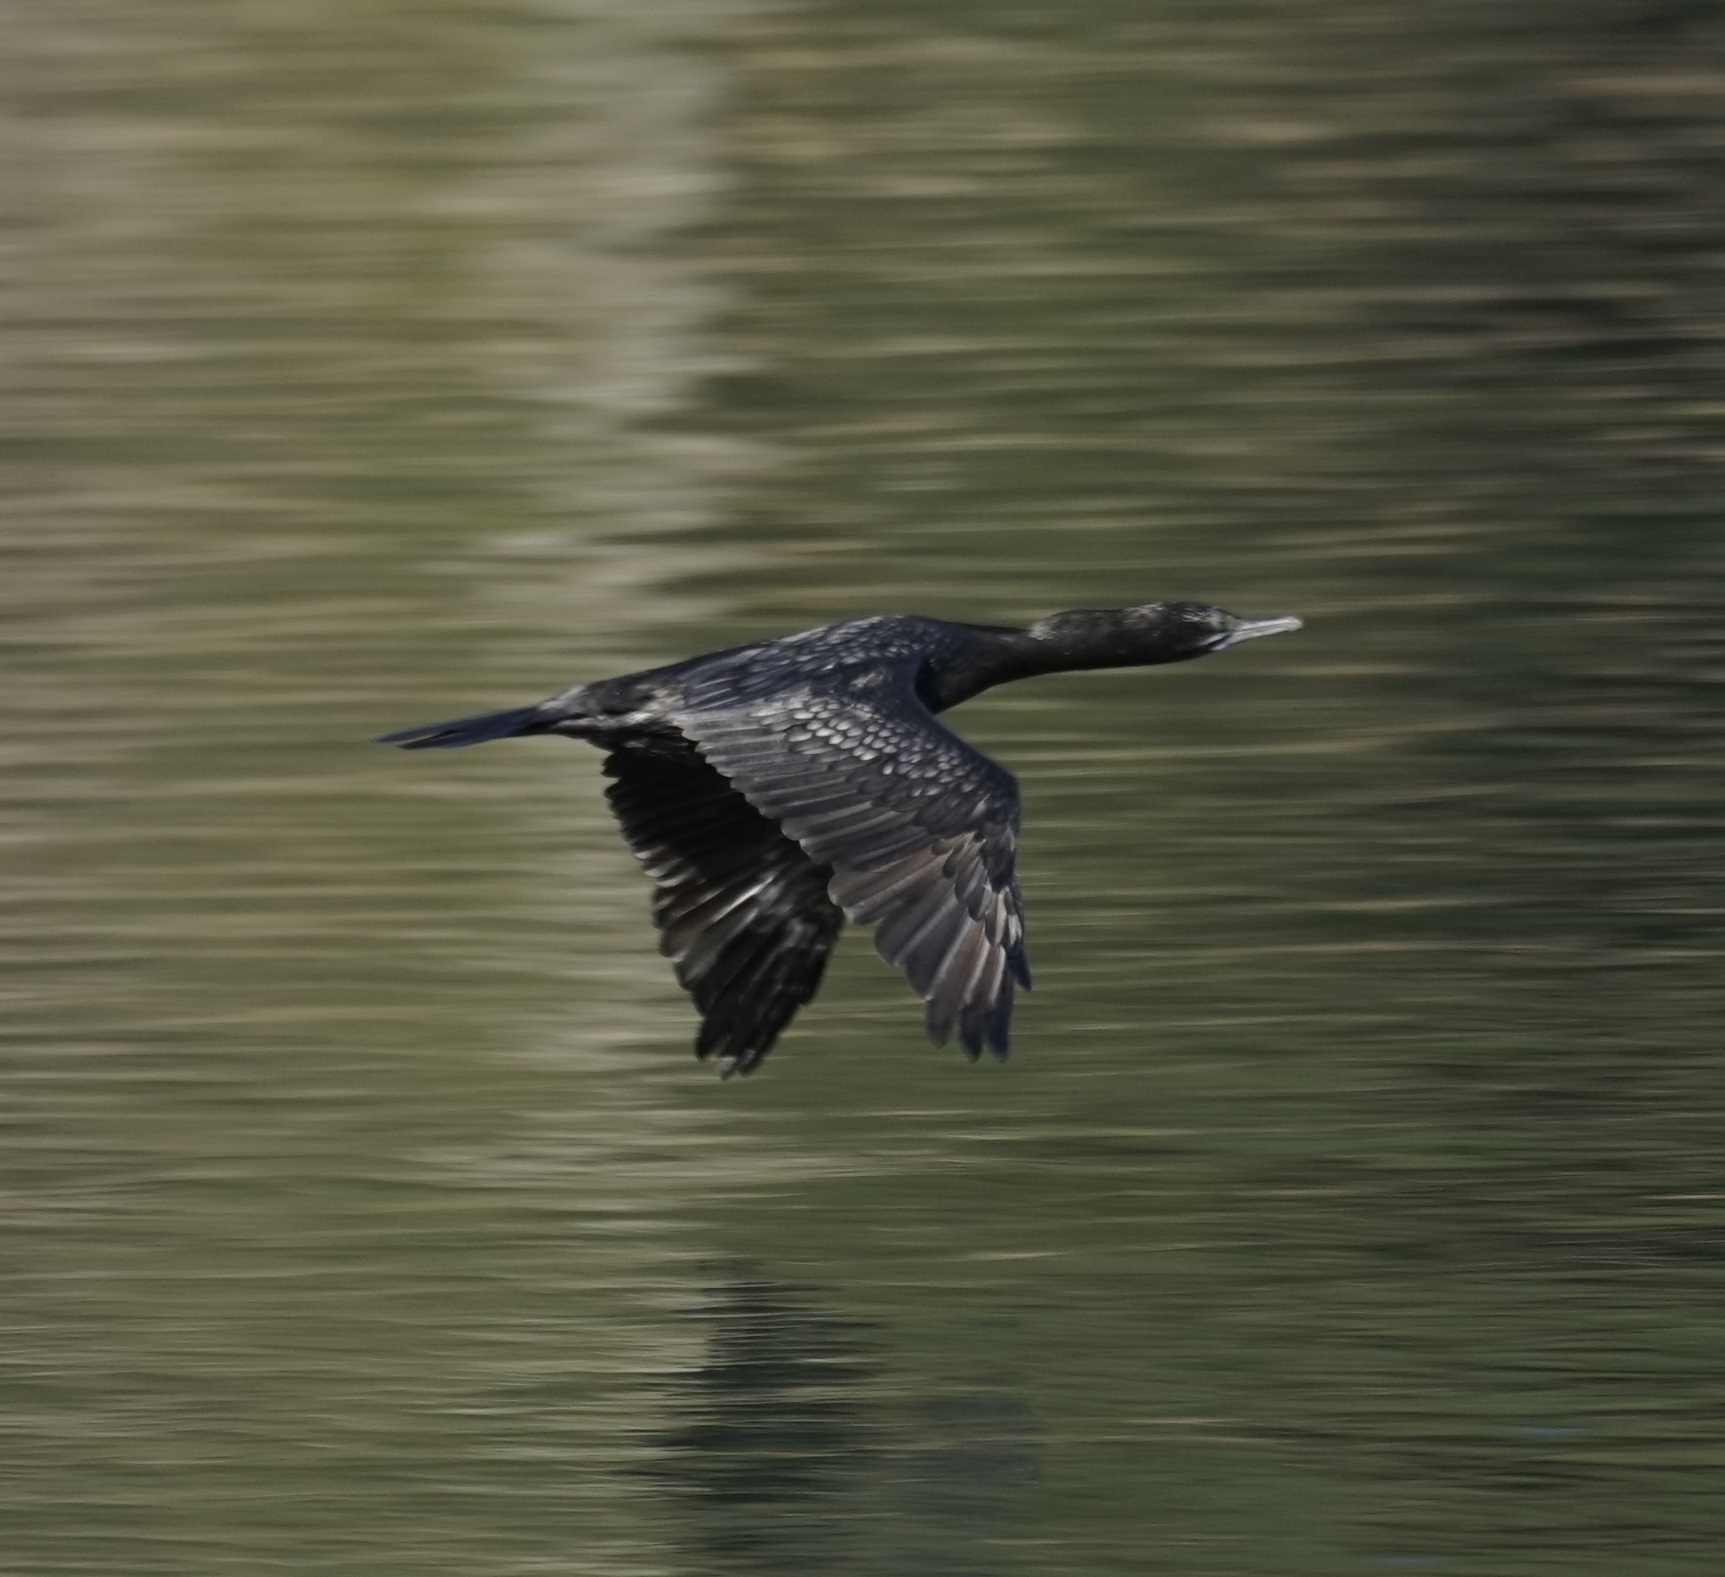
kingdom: Animalia
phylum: Chordata
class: Aves
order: Suliformes
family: Phalacrocoracidae
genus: Phalacrocorax
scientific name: Phalacrocorax sulcirostris
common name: Little black cormorant
